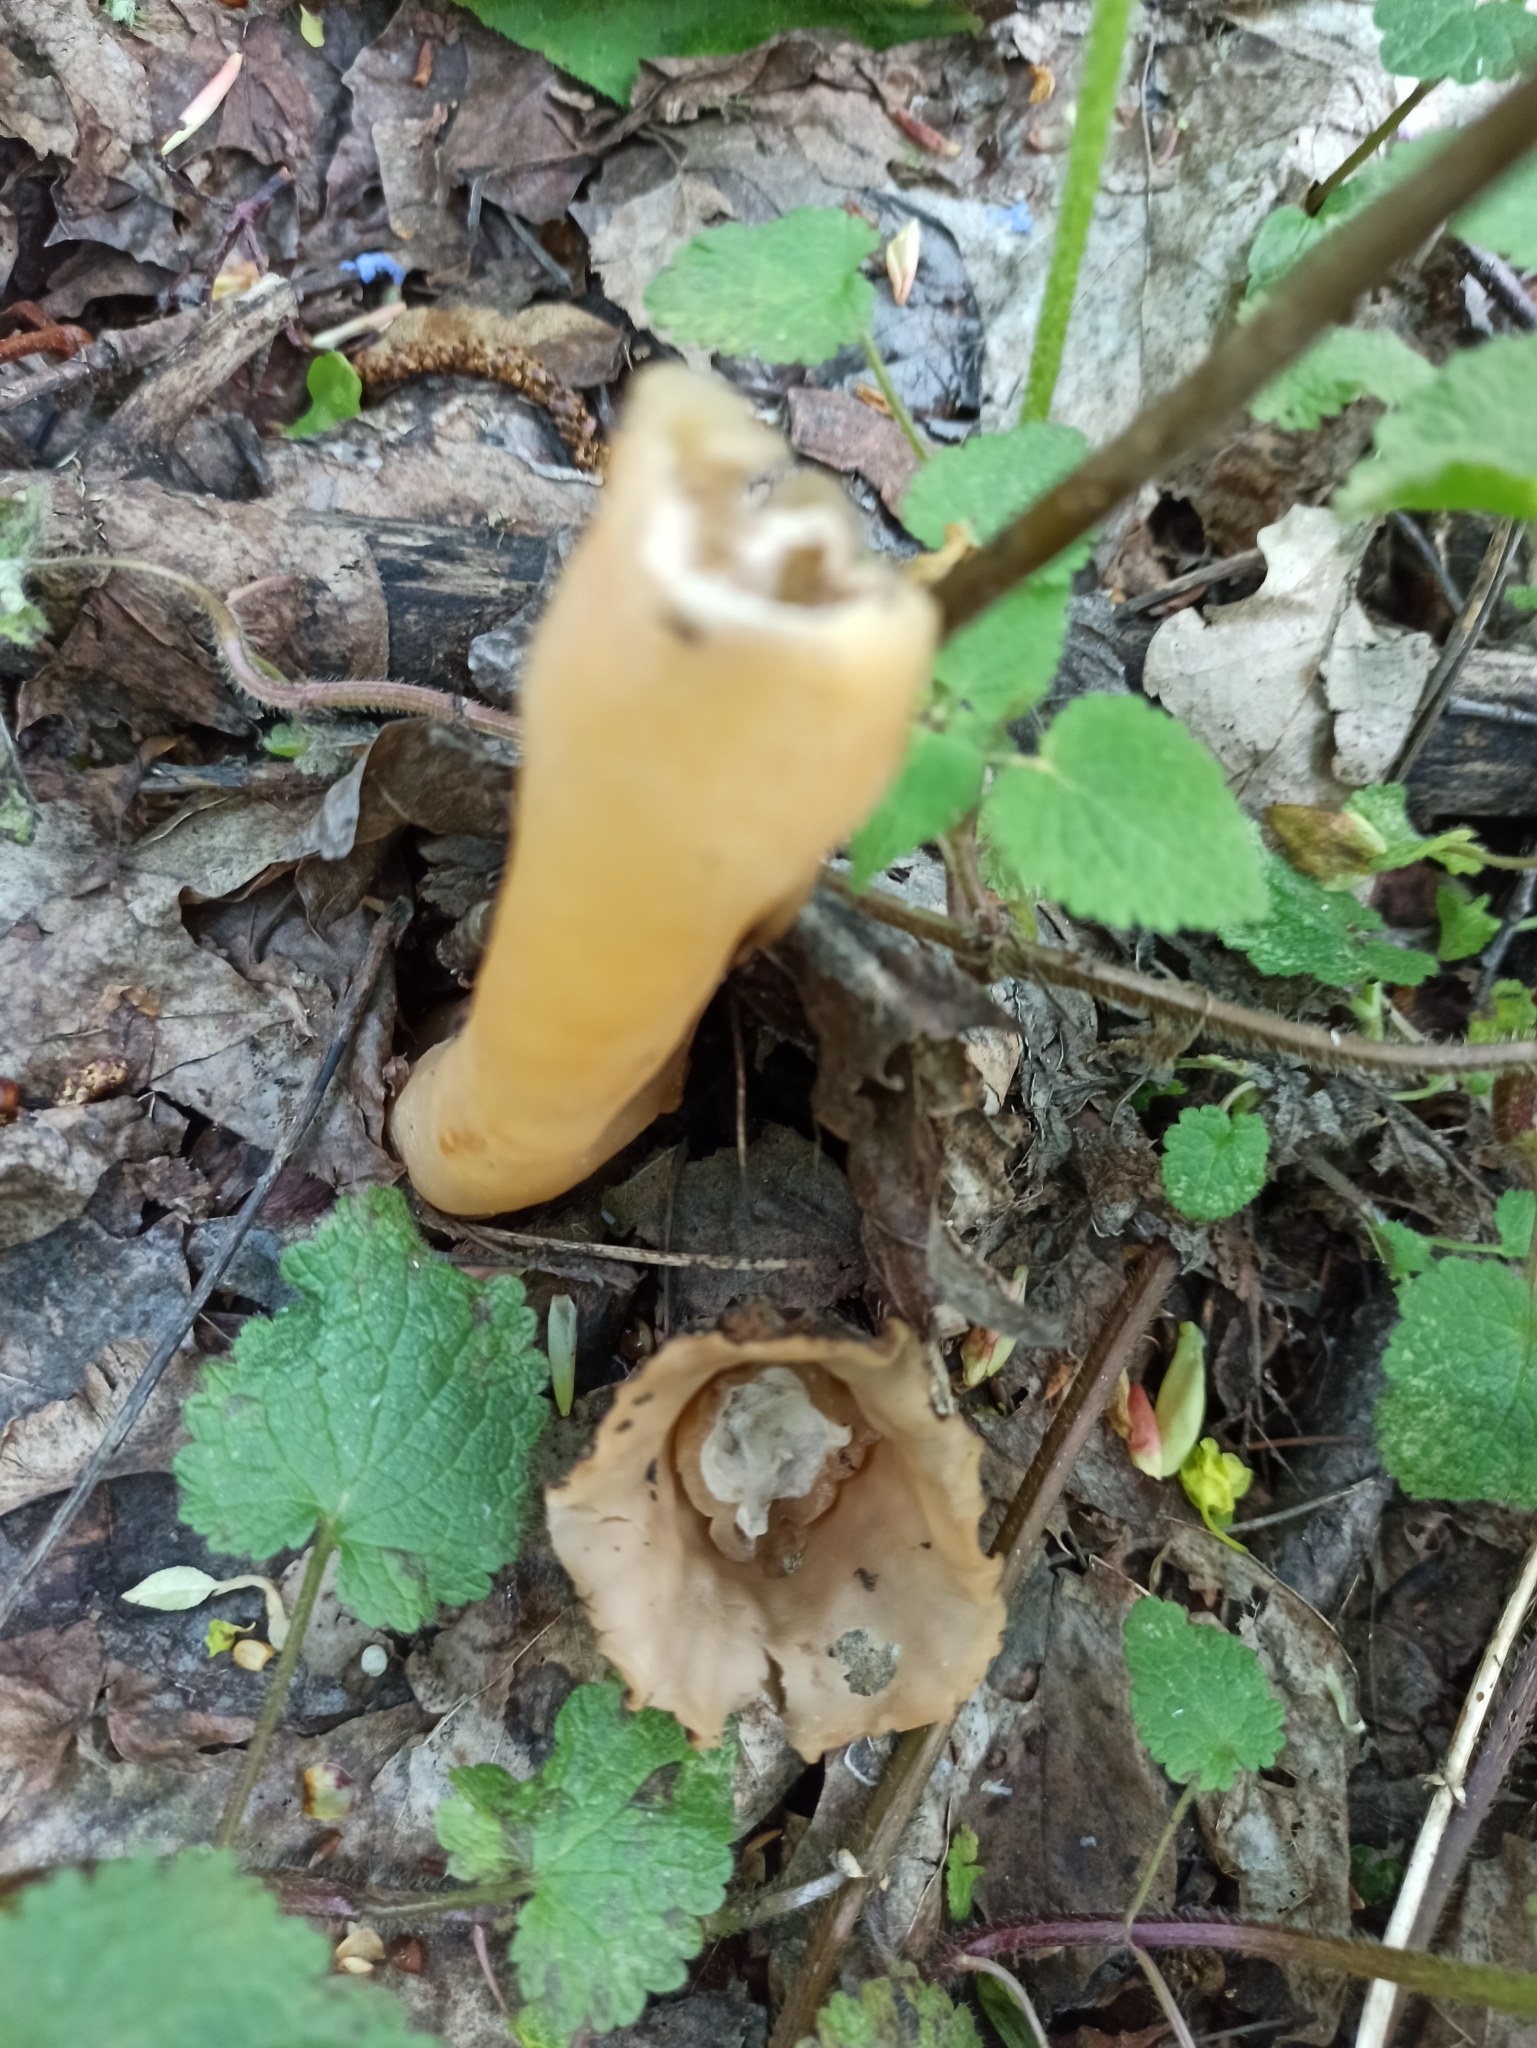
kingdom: Fungi
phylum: Ascomycota
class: Pezizomycetes
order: Pezizales
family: Morchellaceae
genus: Verpa
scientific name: Verpa bohemica
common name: Wrinkled thimble morel
